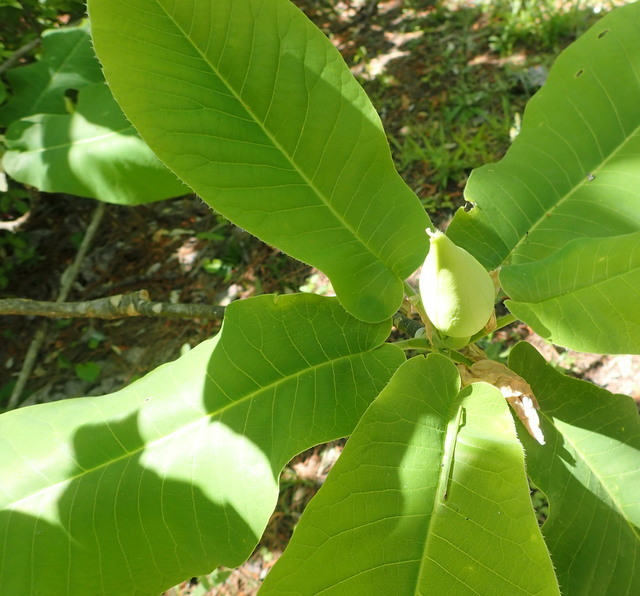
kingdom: Plantae
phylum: Tracheophyta
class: Magnoliopsida
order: Magnoliales
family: Magnoliaceae
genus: Magnolia
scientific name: Magnolia ashei
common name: Ashe's magnolia
